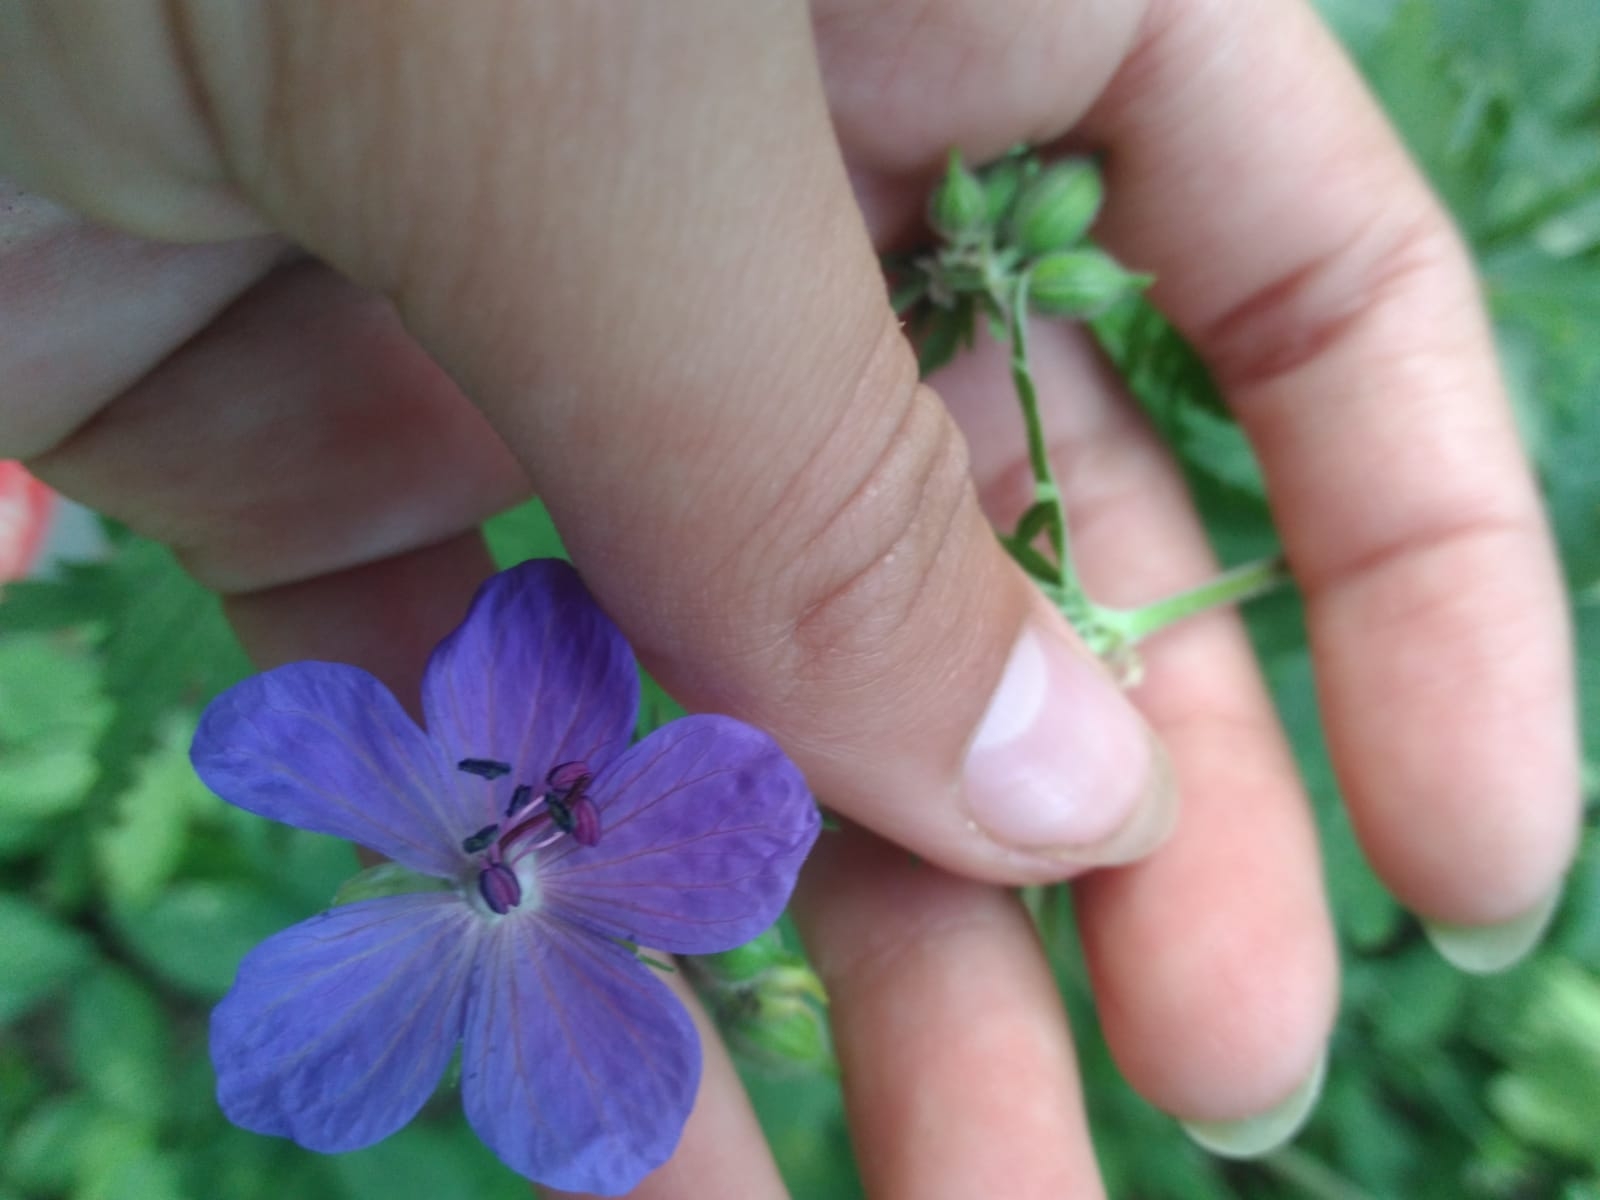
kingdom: Plantae
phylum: Tracheophyta
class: Magnoliopsida
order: Geraniales
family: Geraniaceae
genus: Geranium
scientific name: Geranium pratense
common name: Meadow crane's-bill
